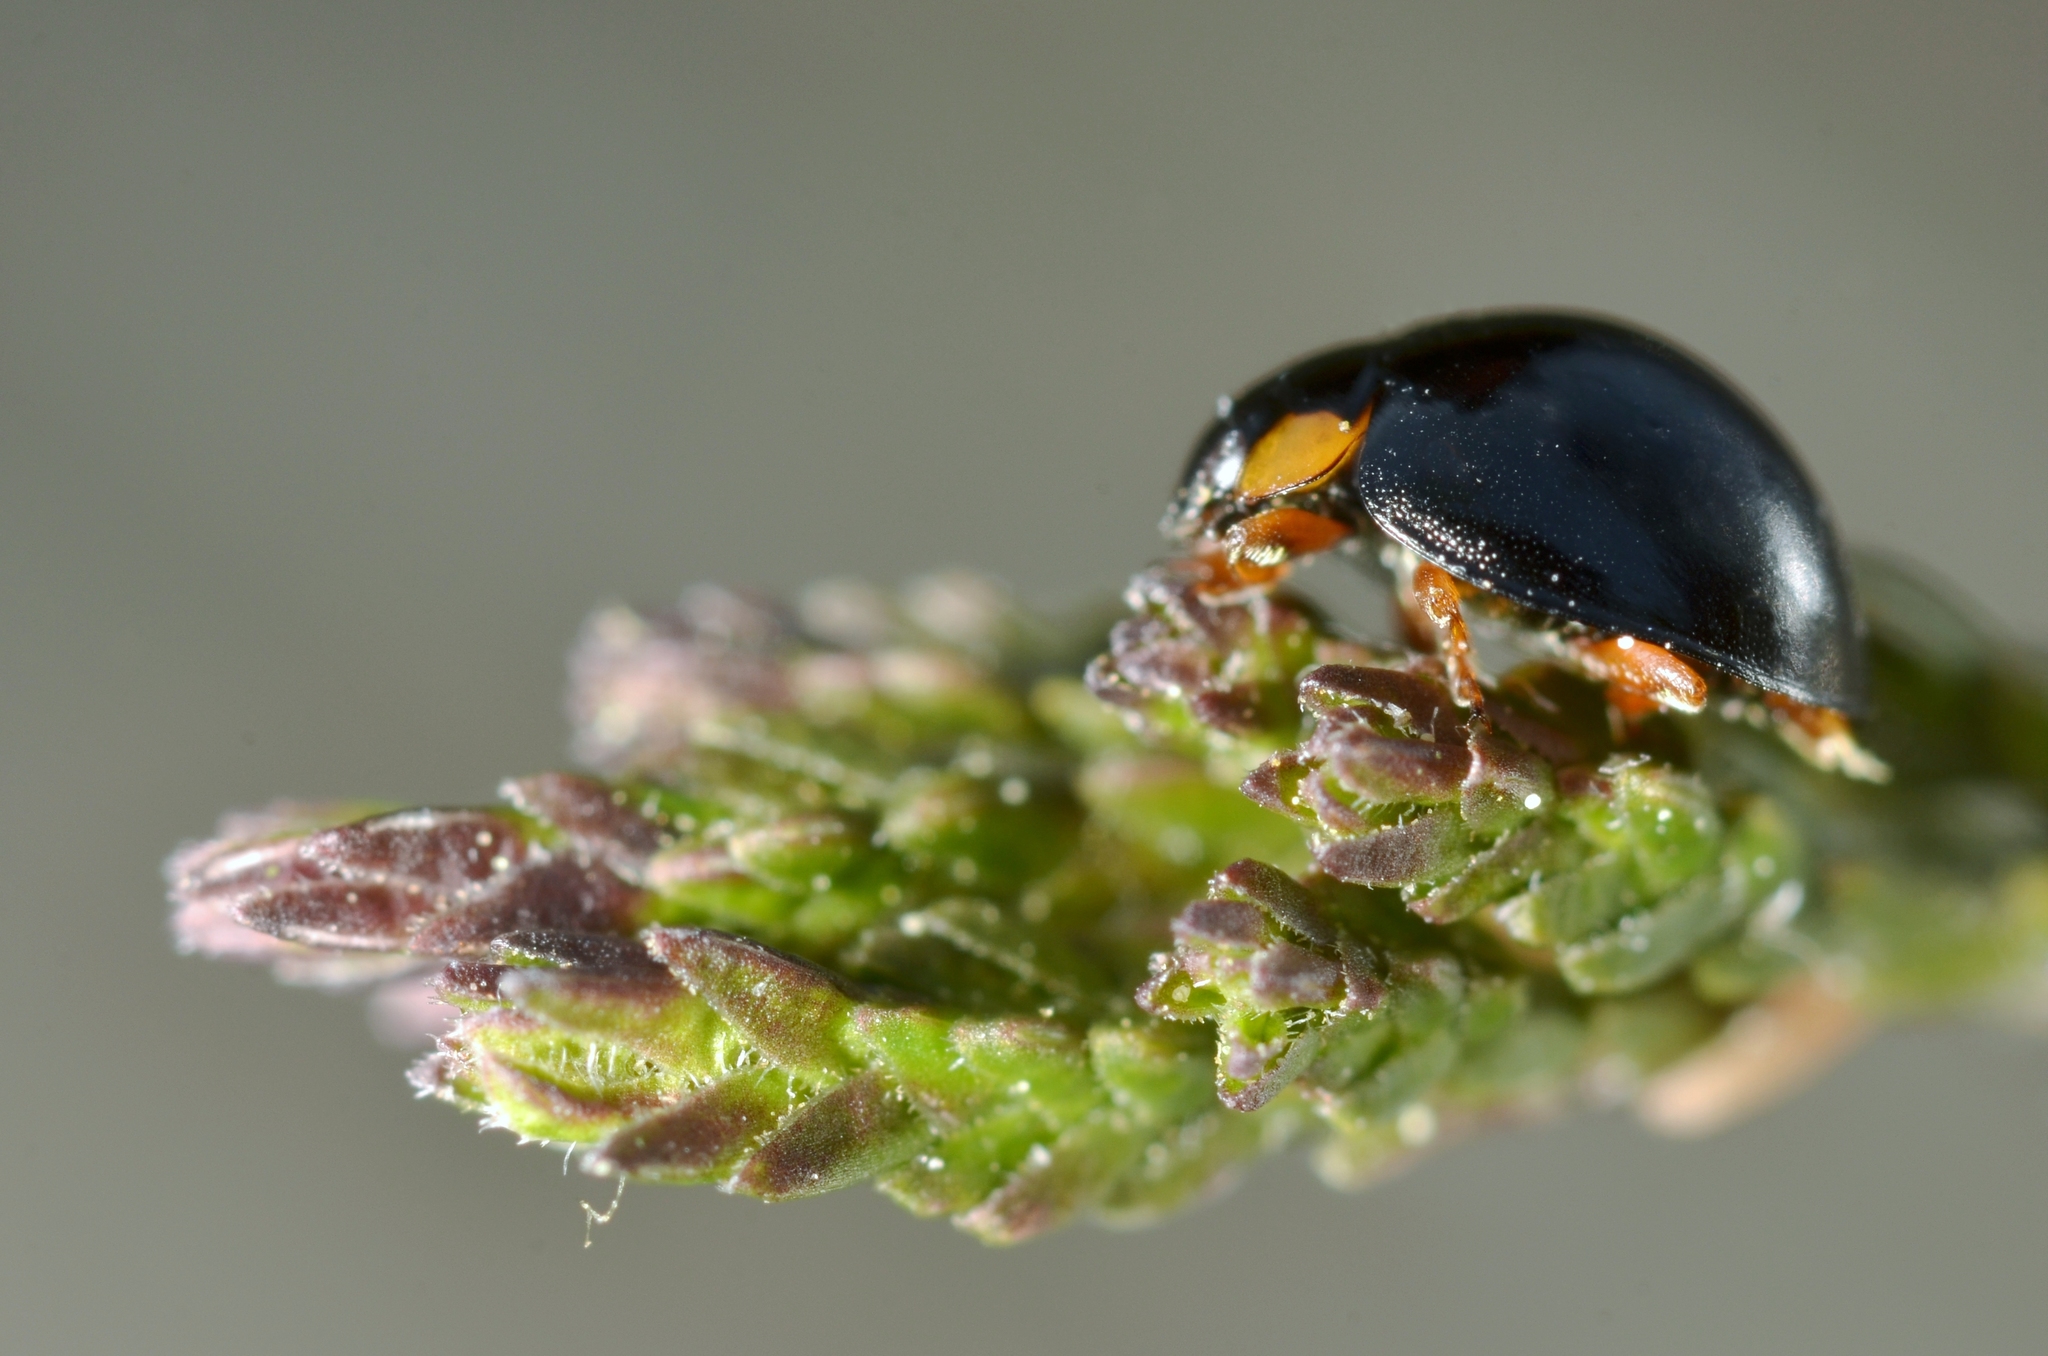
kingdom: Animalia
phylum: Arthropoda
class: Insecta
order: Coleoptera
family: Coccinellidae
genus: Parexochomus
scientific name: Parexochomus nigromaculatus
